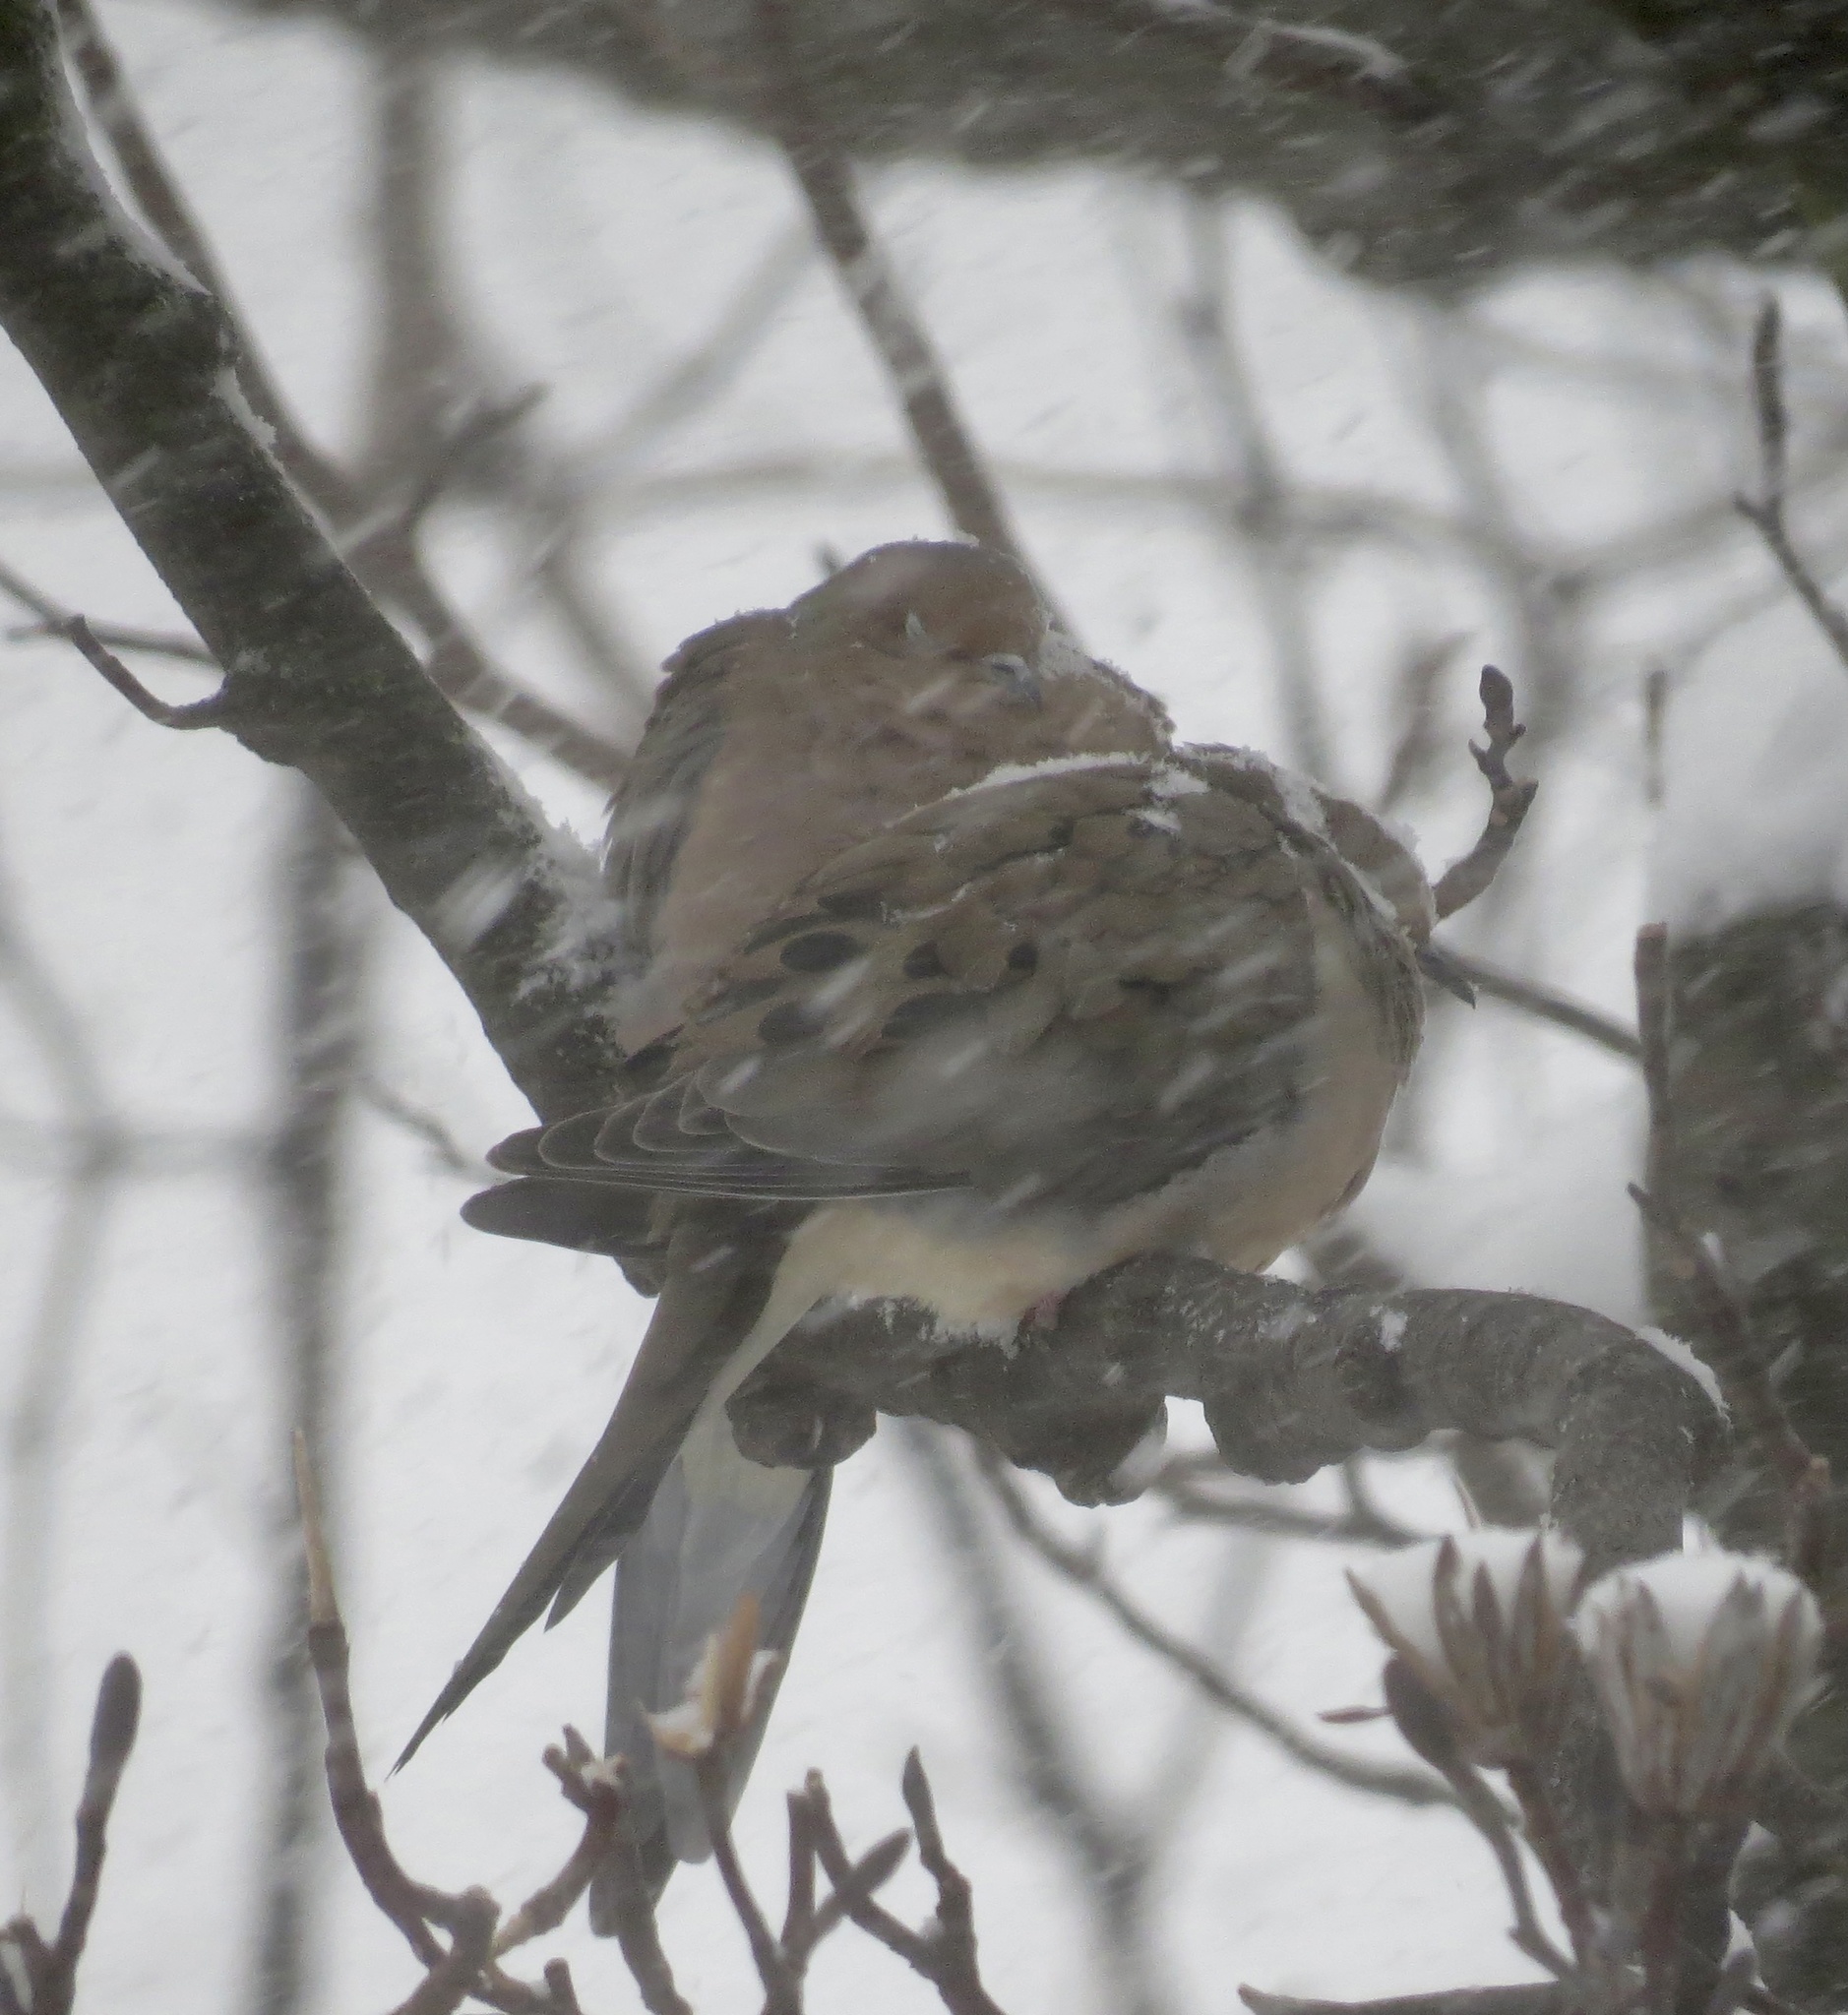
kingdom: Animalia
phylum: Chordata
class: Aves
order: Columbiformes
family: Columbidae
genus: Zenaida
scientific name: Zenaida macroura
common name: Mourning dove
